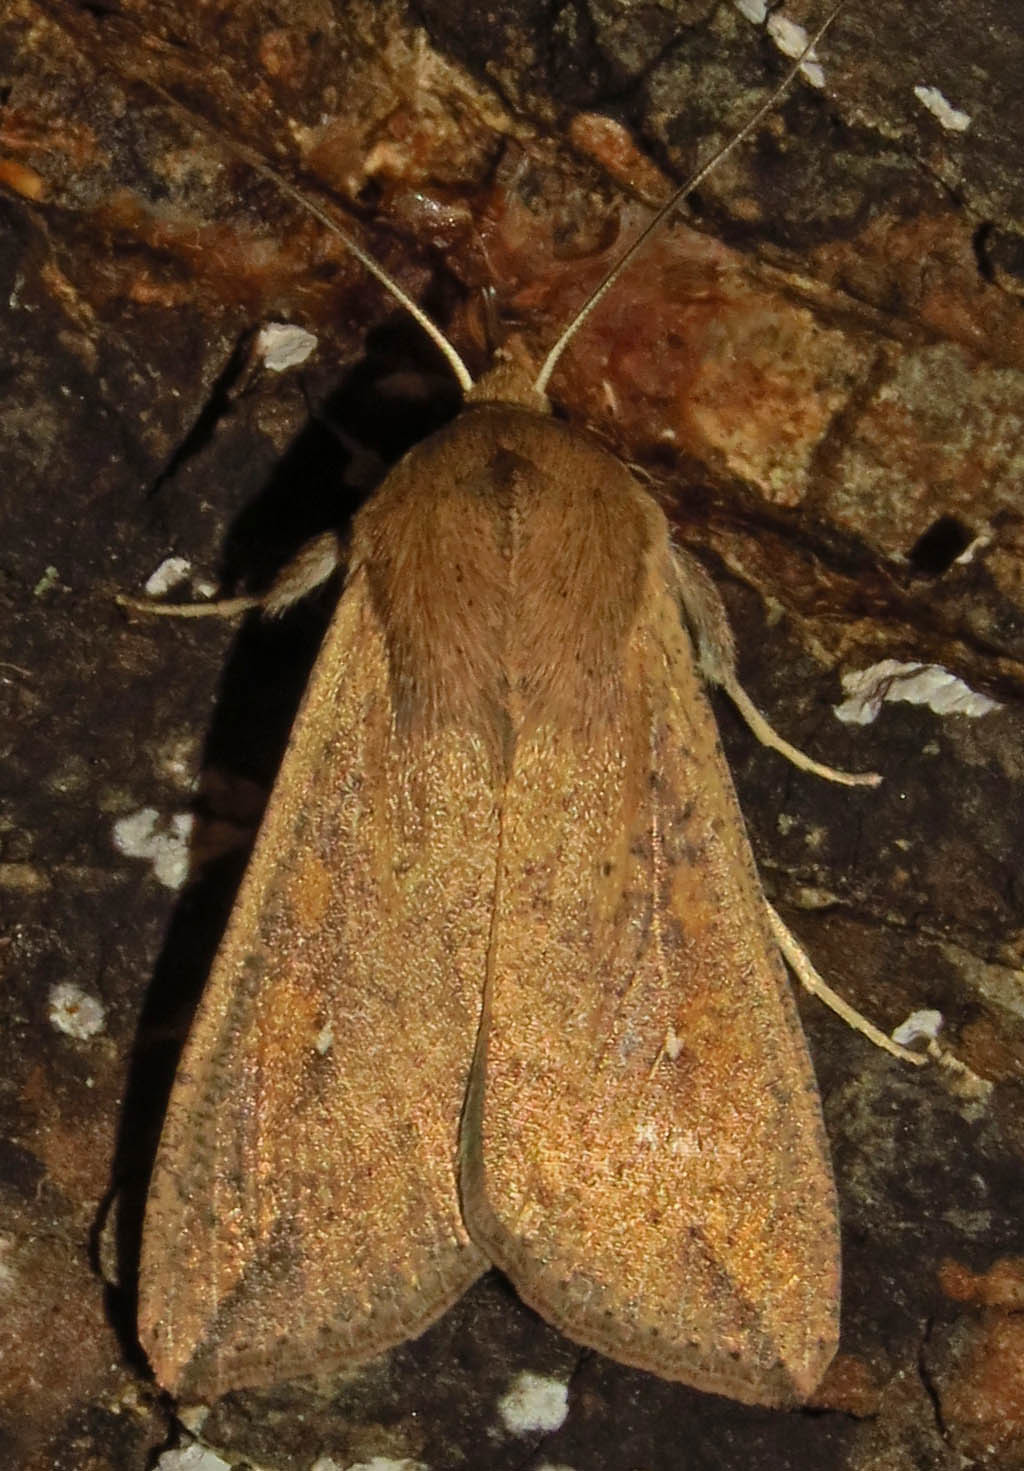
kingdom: Animalia
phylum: Arthropoda
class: Insecta
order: Lepidoptera
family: Noctuidae
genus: Mythimna
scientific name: Mythimna unipuncta
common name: White-speck
